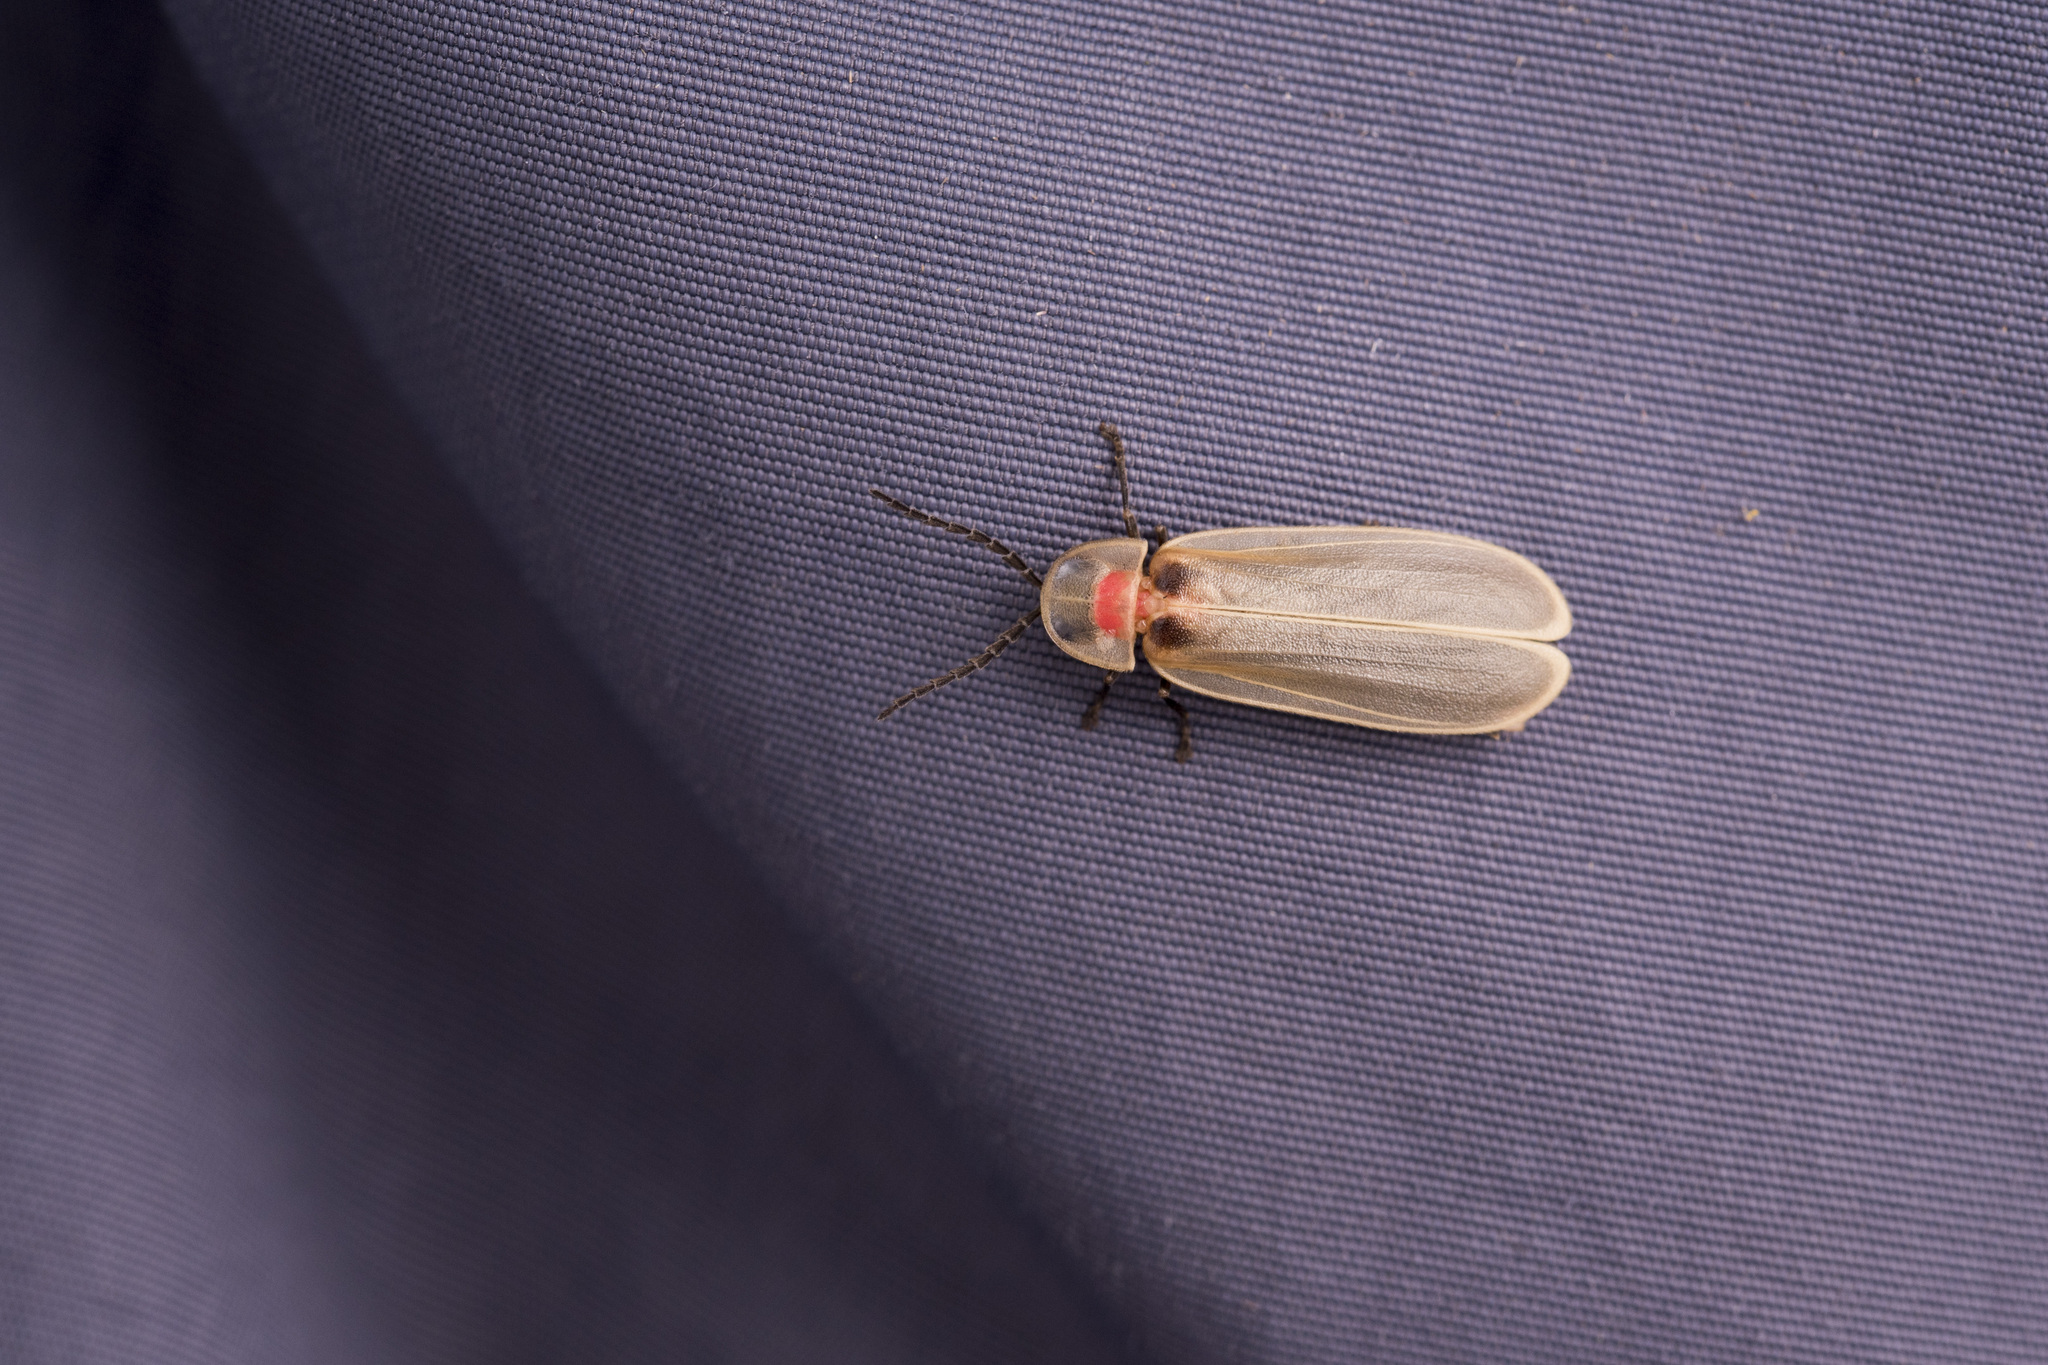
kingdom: Animalia
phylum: Arthropoda
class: Insecta
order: Coleoptera
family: Lampyridae
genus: Diaphanes
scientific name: Diaphanes lampyroides
